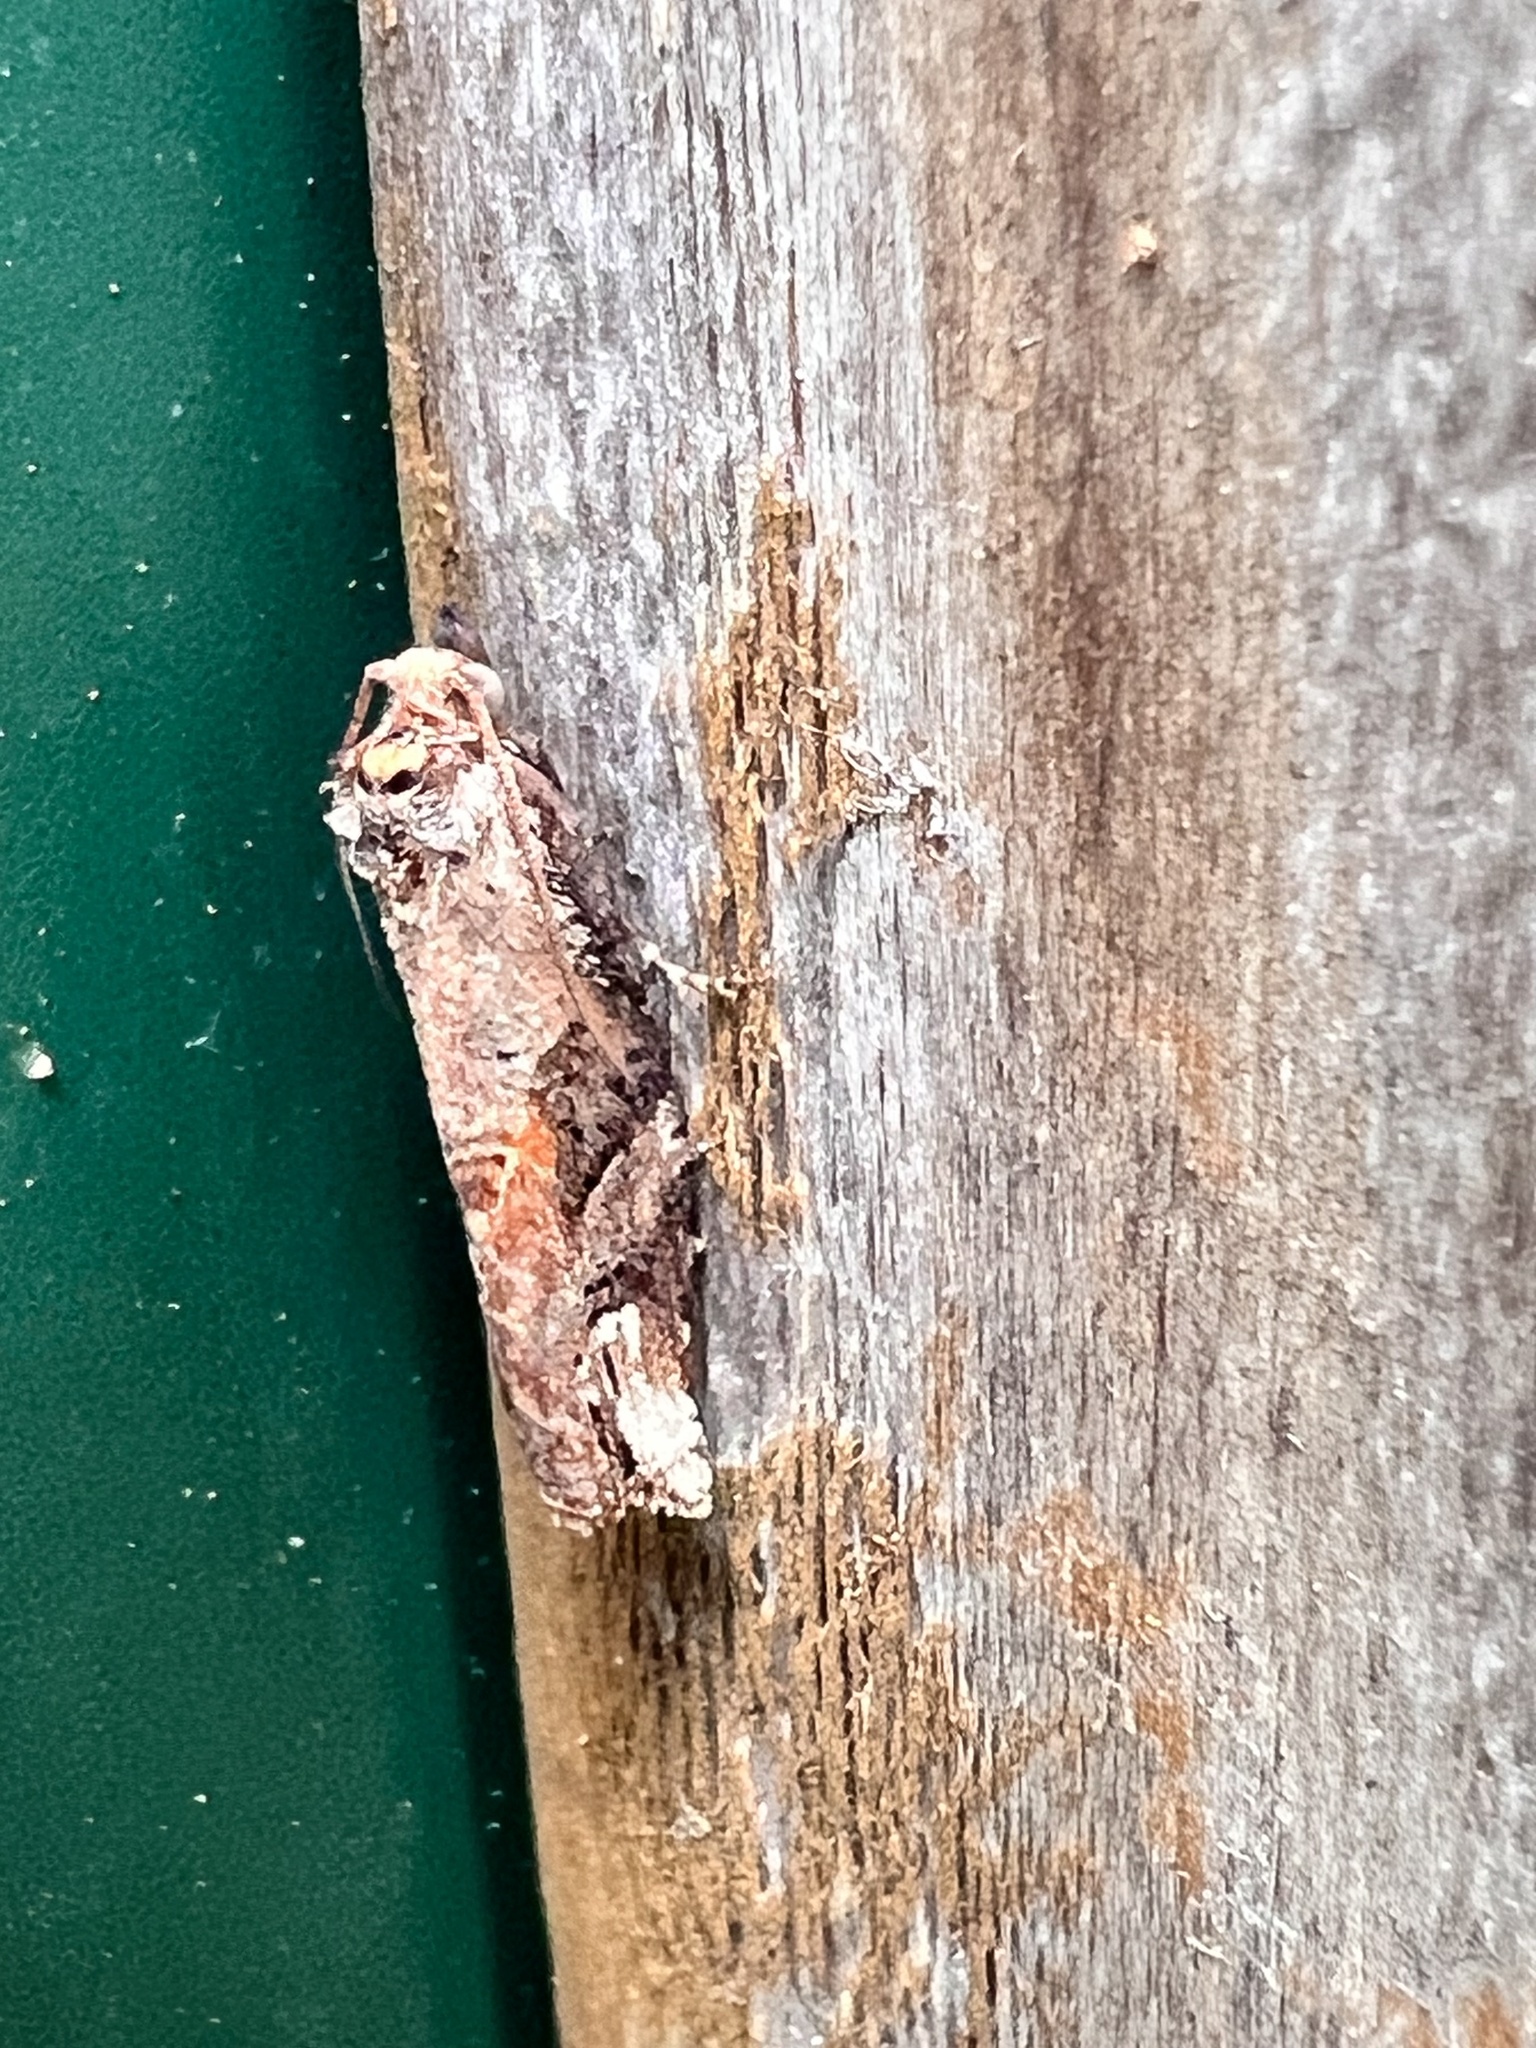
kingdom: Animalia
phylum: Arthropoda
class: Insecta
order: Lepidoptera
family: Tortricidae
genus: Epalxiphora
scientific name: Epalxiphora axenana
